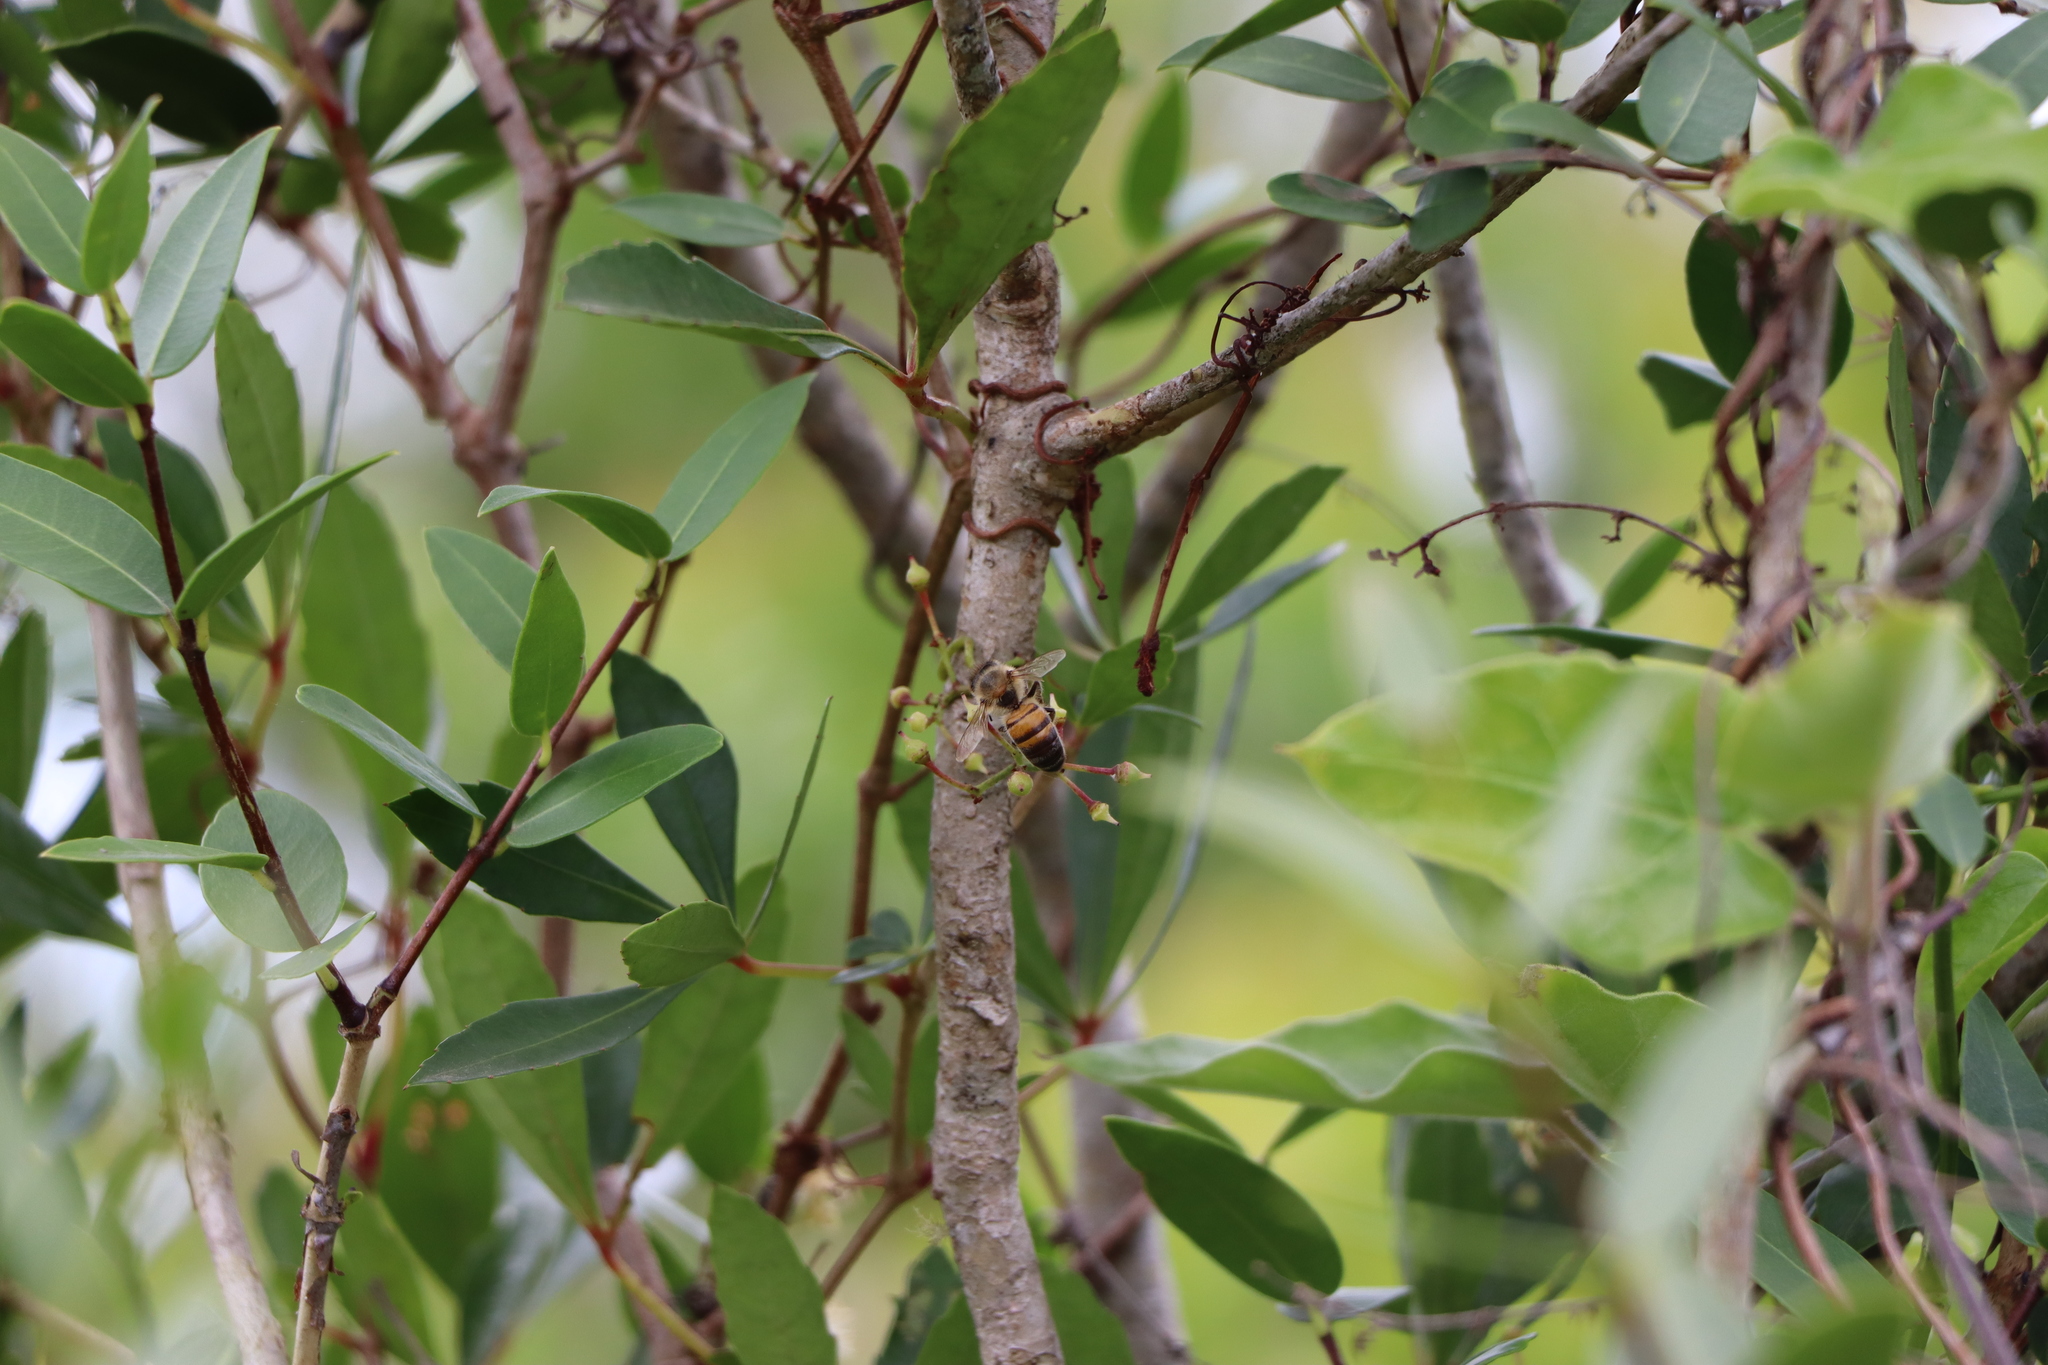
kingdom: Animalia
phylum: Arthropoda
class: Insecta
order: Hymenoptera
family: Apidae
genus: Apis
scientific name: Apis mellifera
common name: Honey bee
